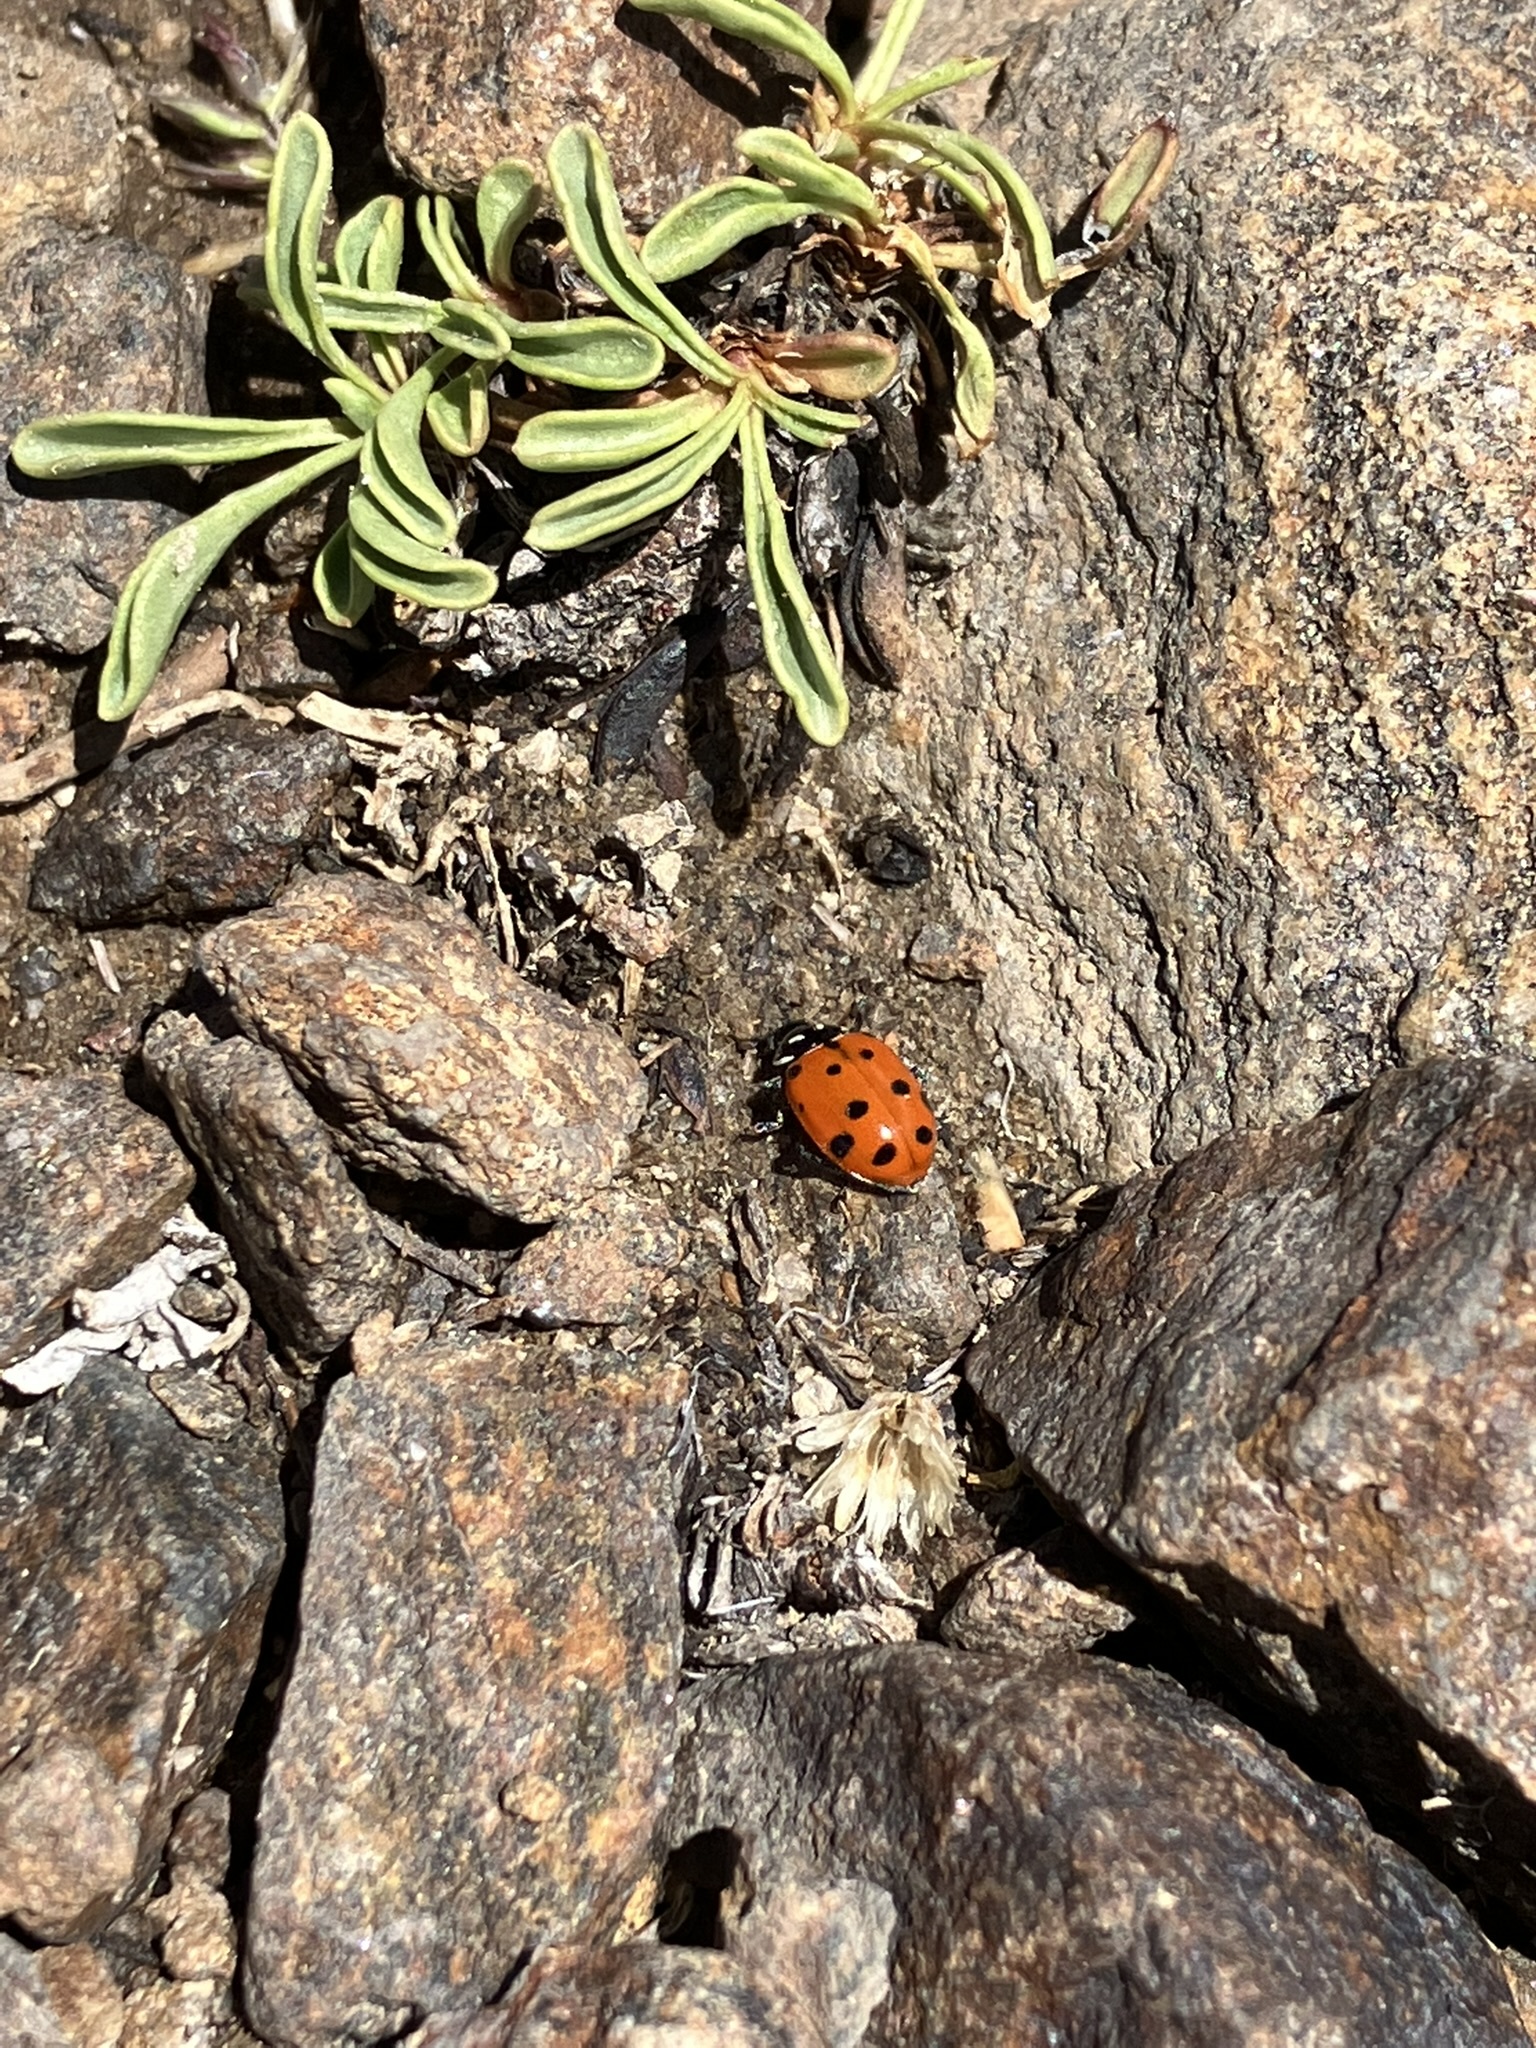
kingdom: Animalia
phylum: Arthropoda
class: Insecta
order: Coleoptera
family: Coccinellidae
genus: Hippodamia
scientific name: Hippodamia convergens
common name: Convergent lady beetle
